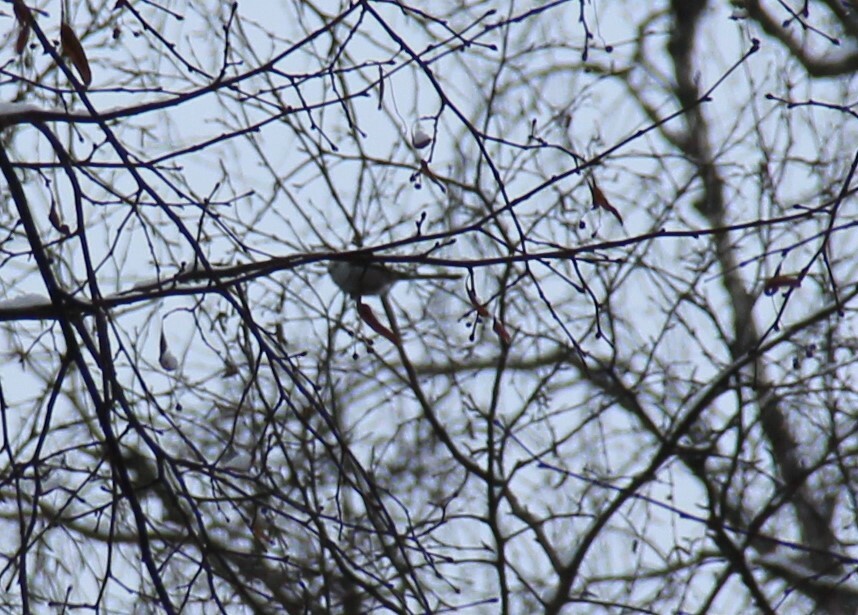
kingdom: Animalia
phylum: Chordata
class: Aves
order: Passeriformes
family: Aegithalidae
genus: Aegithalos
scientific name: Aegithalos caudatus
